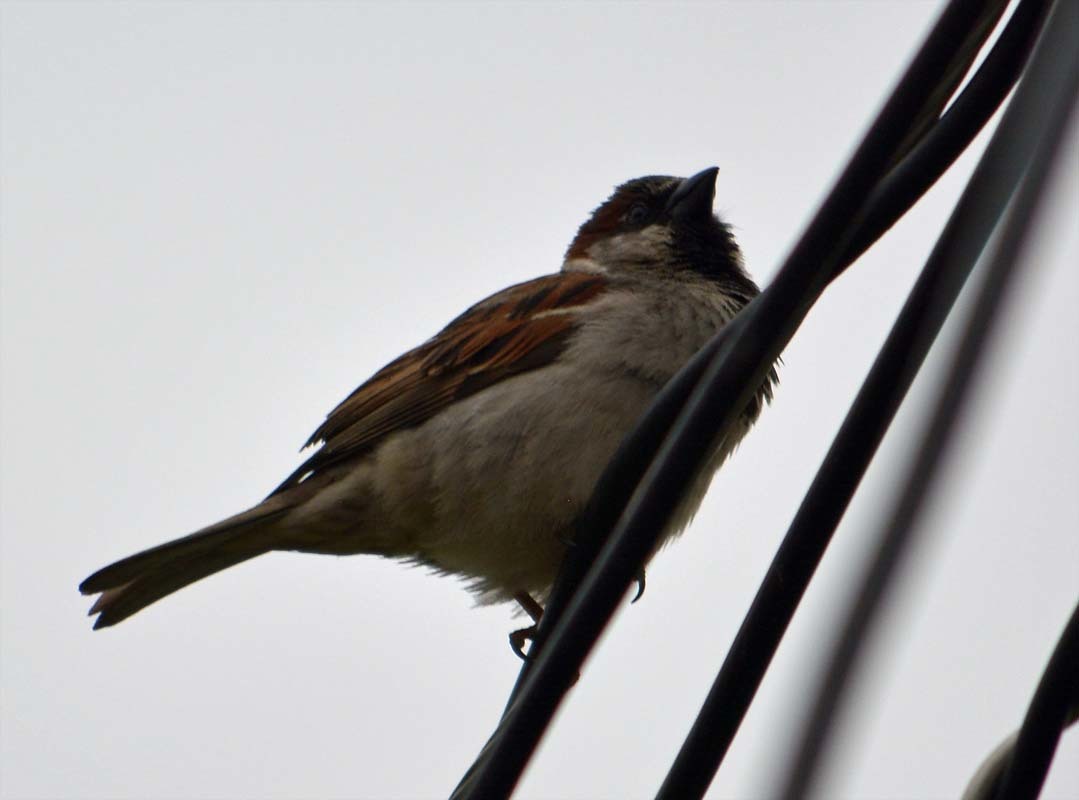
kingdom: Animalia
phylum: Chordata
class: Aves
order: Passeriformes
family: Passeridae
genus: Passer
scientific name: Passer domesticus
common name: House sparrow
